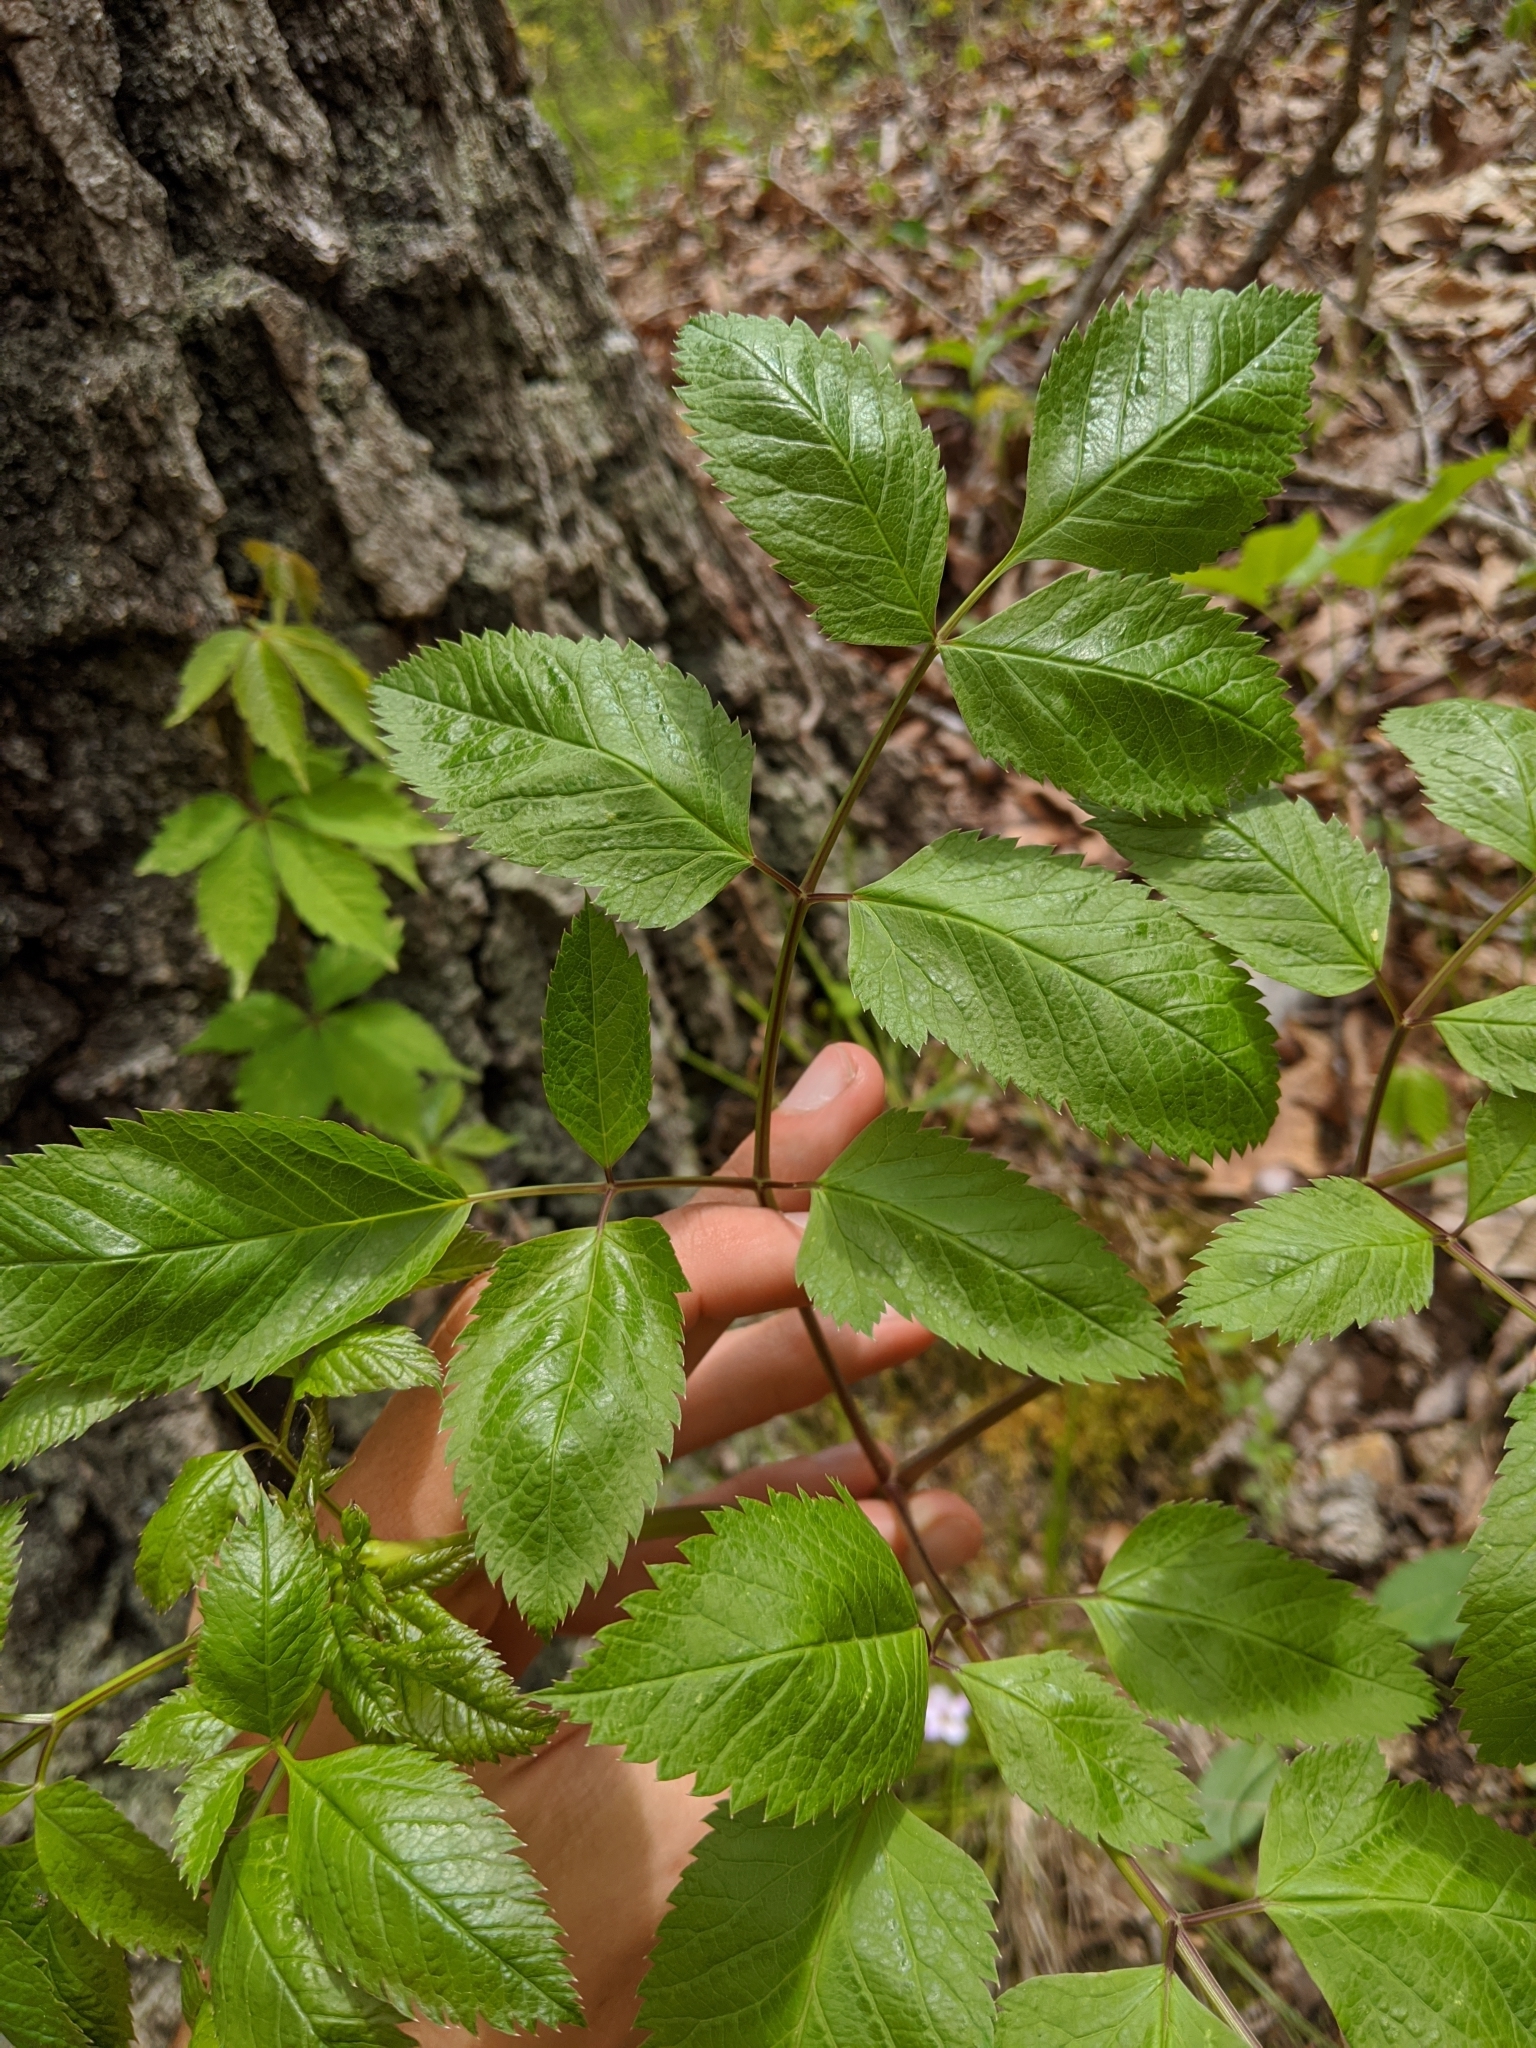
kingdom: Plantae
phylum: Tracheophyta
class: Magnoliopsida
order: Apiales
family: Apiaceae
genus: Ligusticum
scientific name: Ligusticum canadense
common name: American lovage
